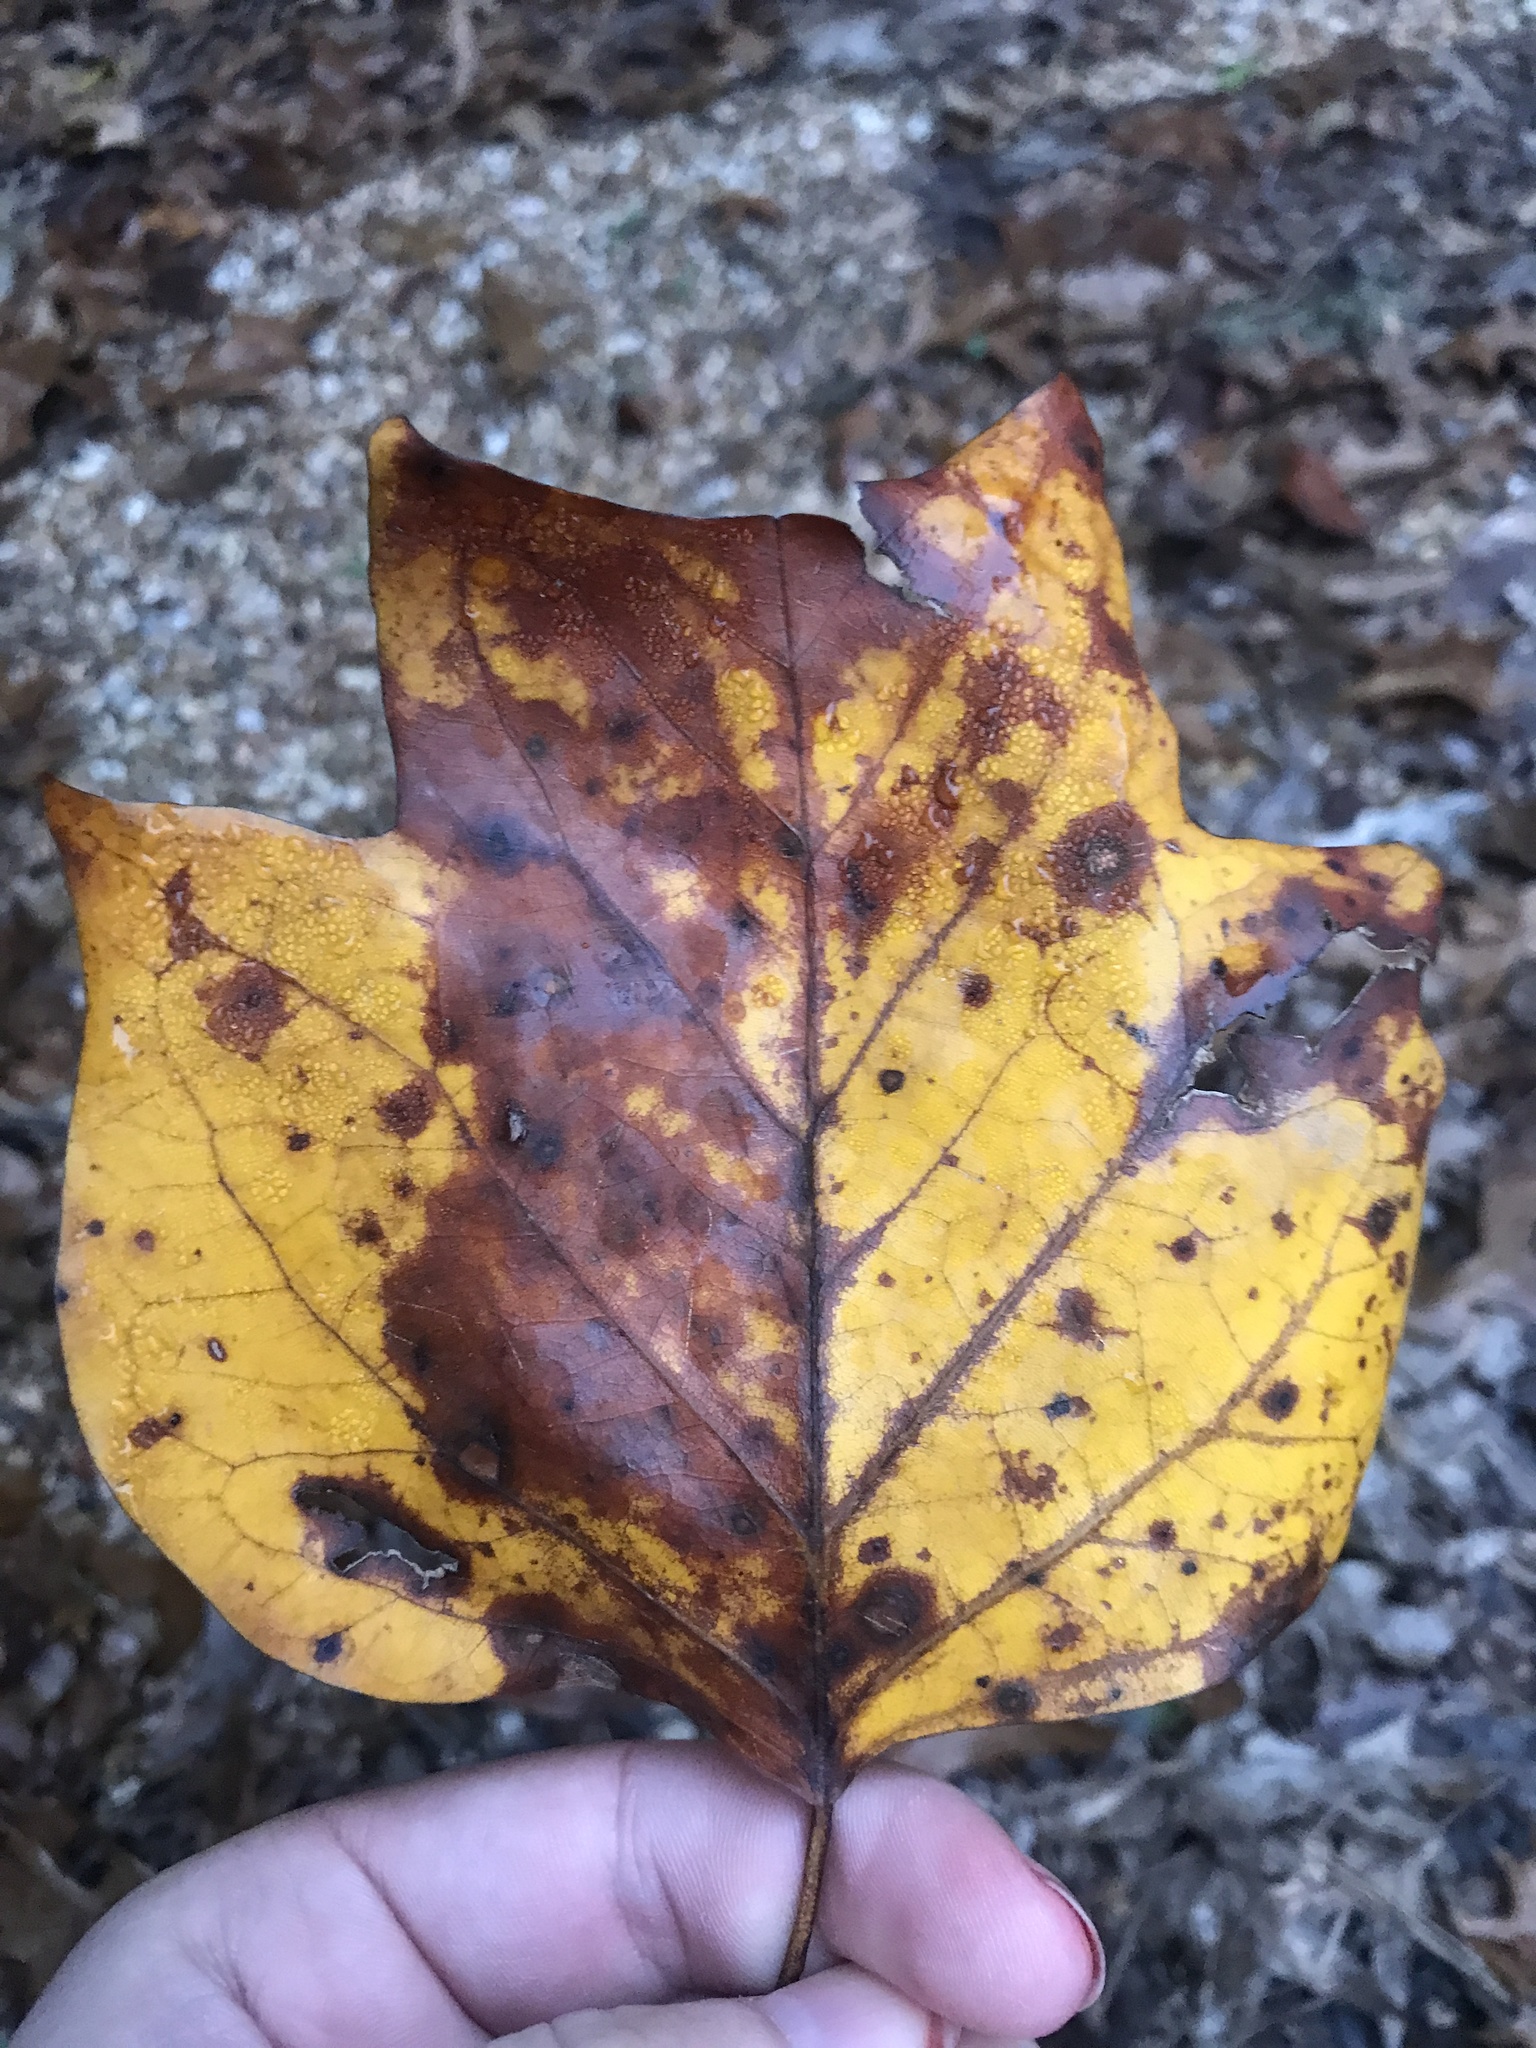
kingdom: Plantae
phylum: Tracheophyta
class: Magnoliopsida
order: Magnoliales
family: Magnoliaceae
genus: Liriodendron
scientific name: Liriodendron tulipifera
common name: Tulip tree
